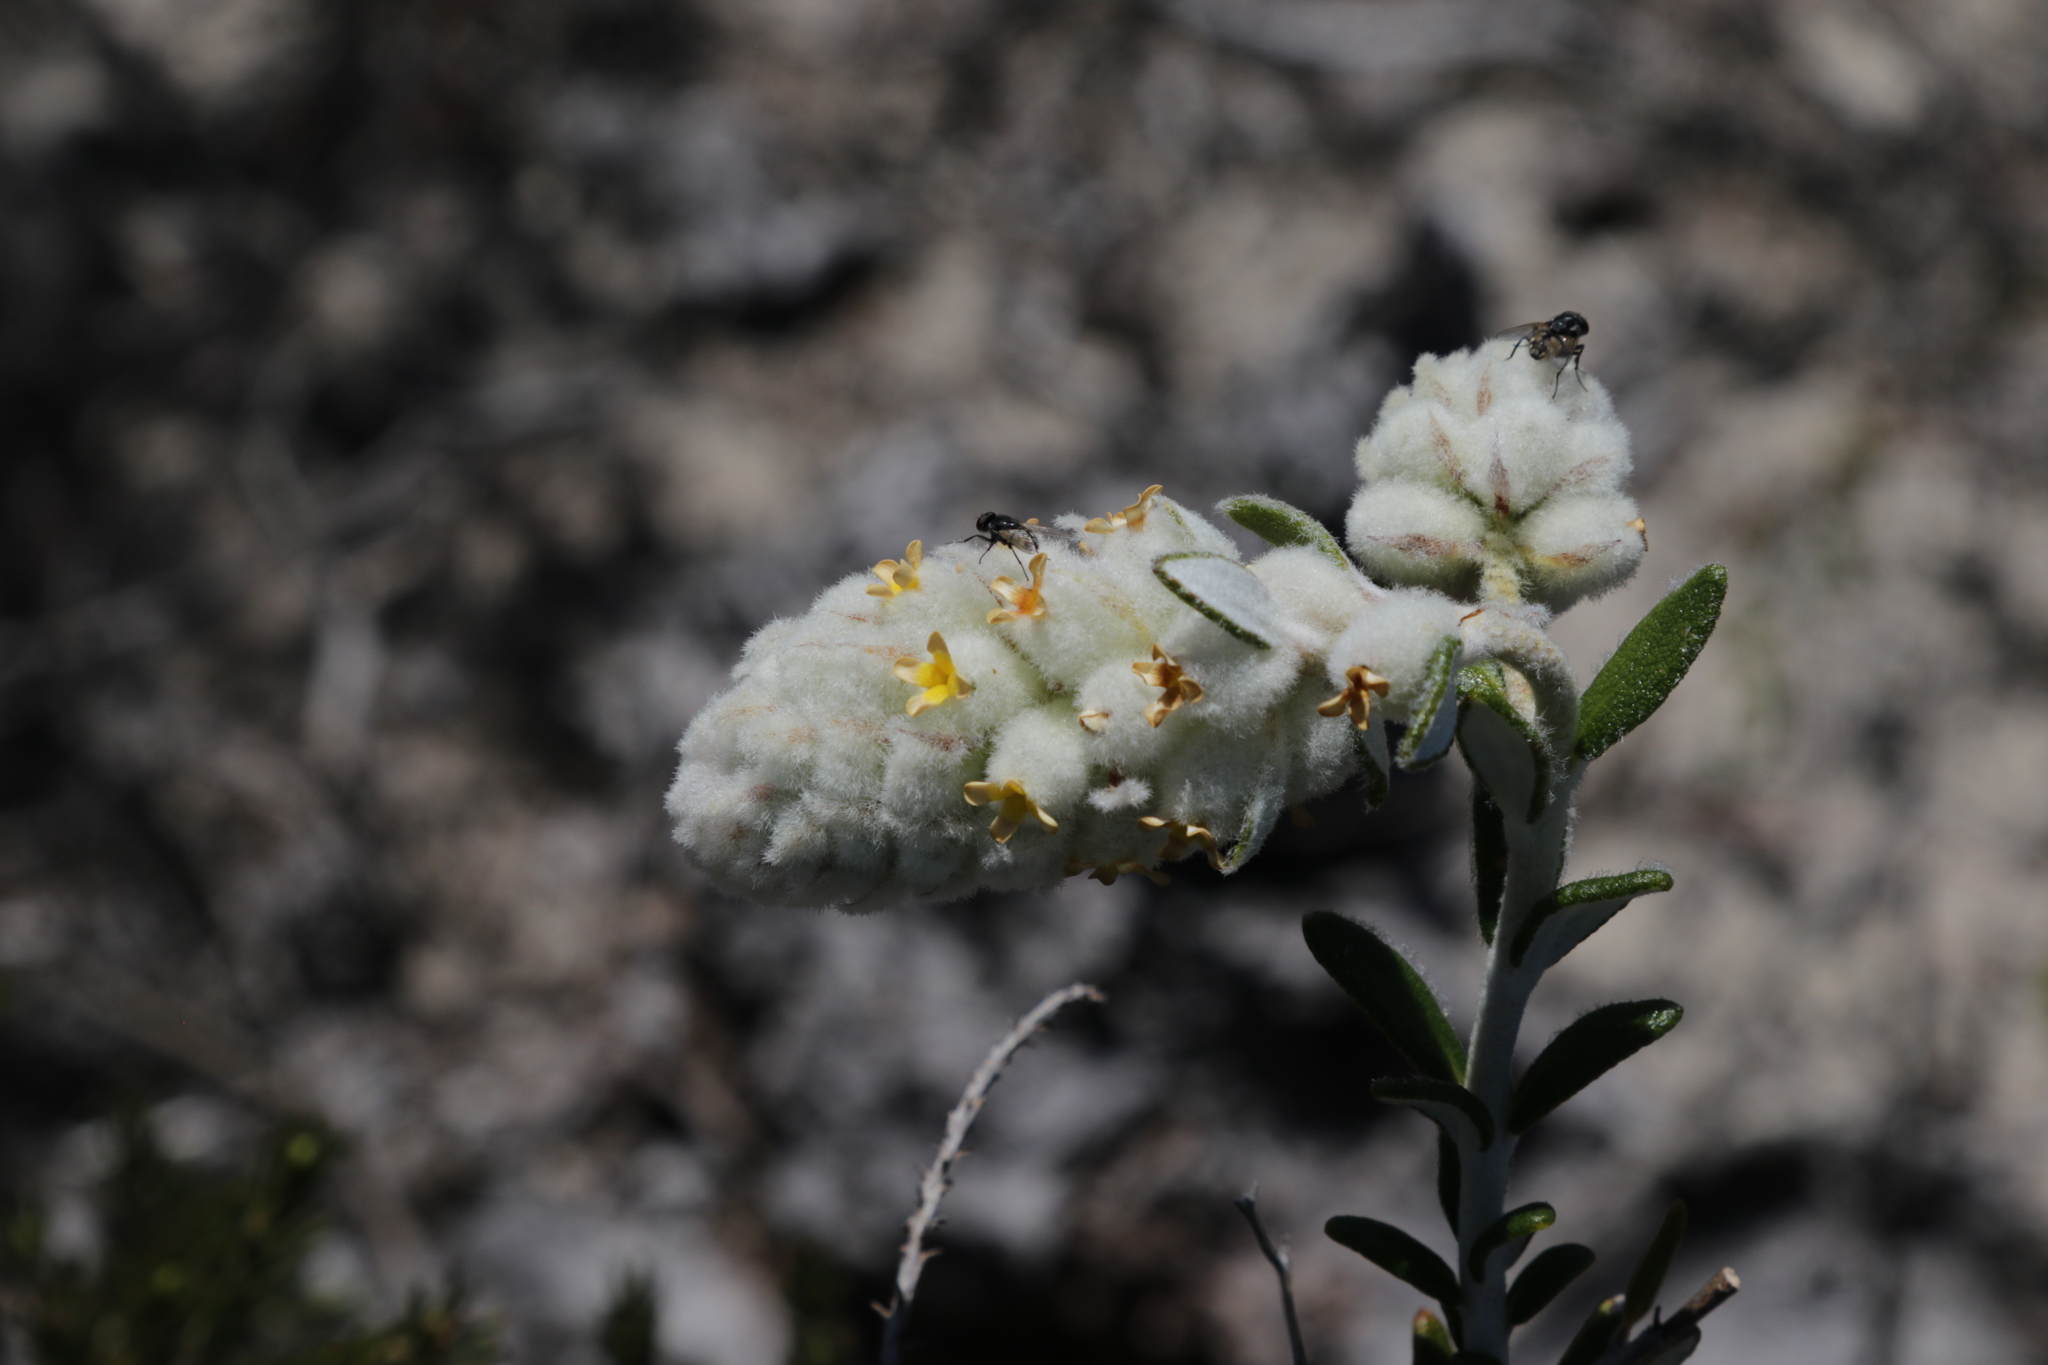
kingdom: Plantae
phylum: Tracheophyta
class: Magnoliopsida
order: Lamiales
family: Lamiaceae
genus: Physopsis
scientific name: Physopsis spicata
